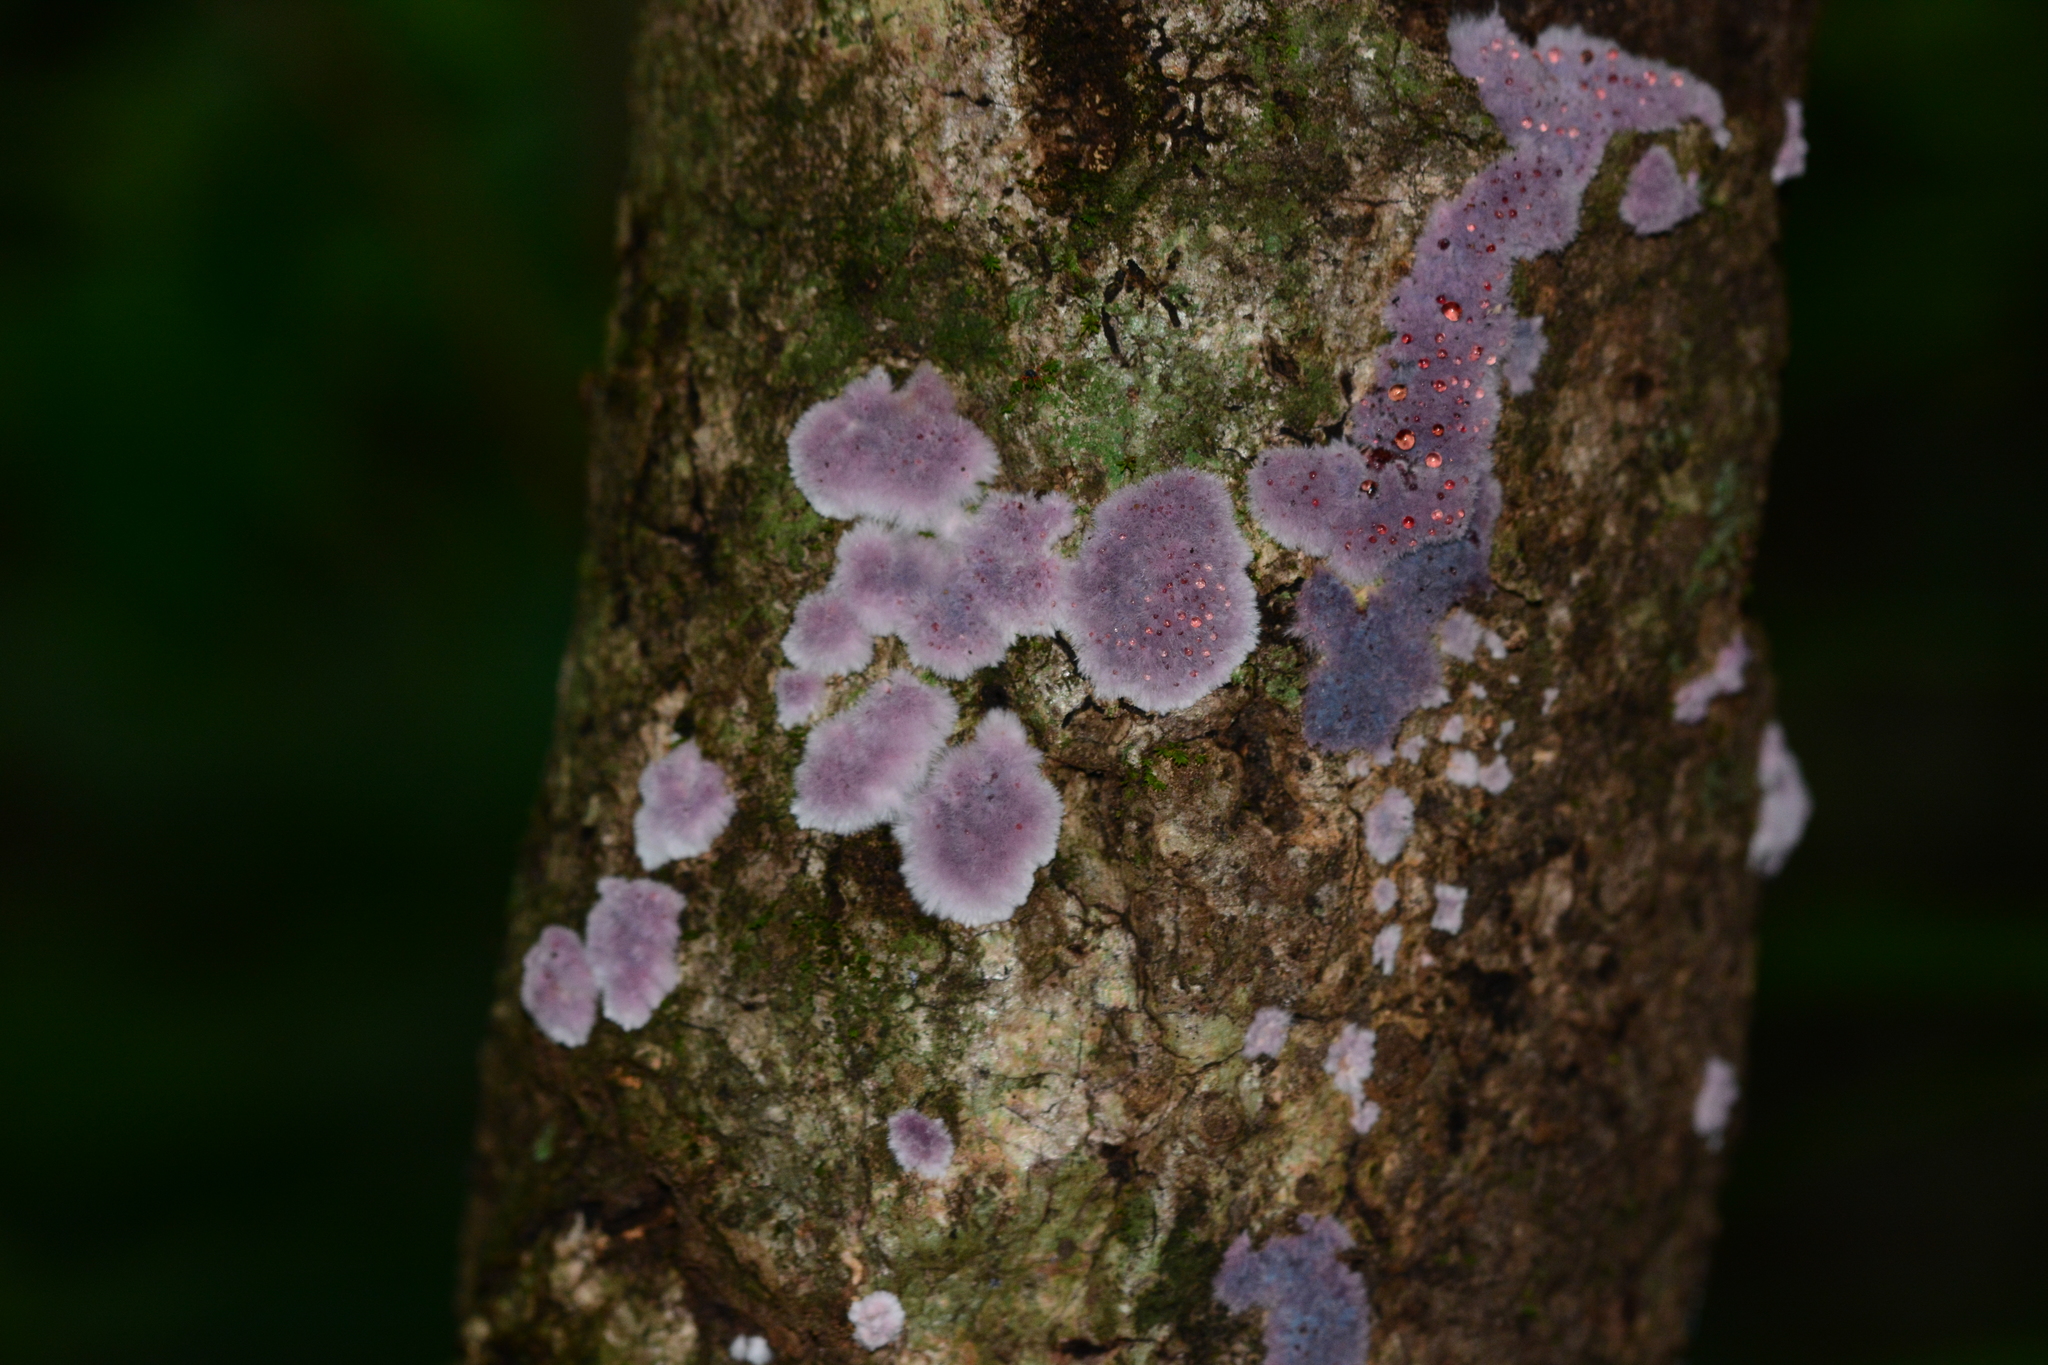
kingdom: Fungi
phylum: Basidiomycota
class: Agaricomycetes
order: Corticiales
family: Punctulariaceae
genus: Punctularia
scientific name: Punctularia atropurpurascens
